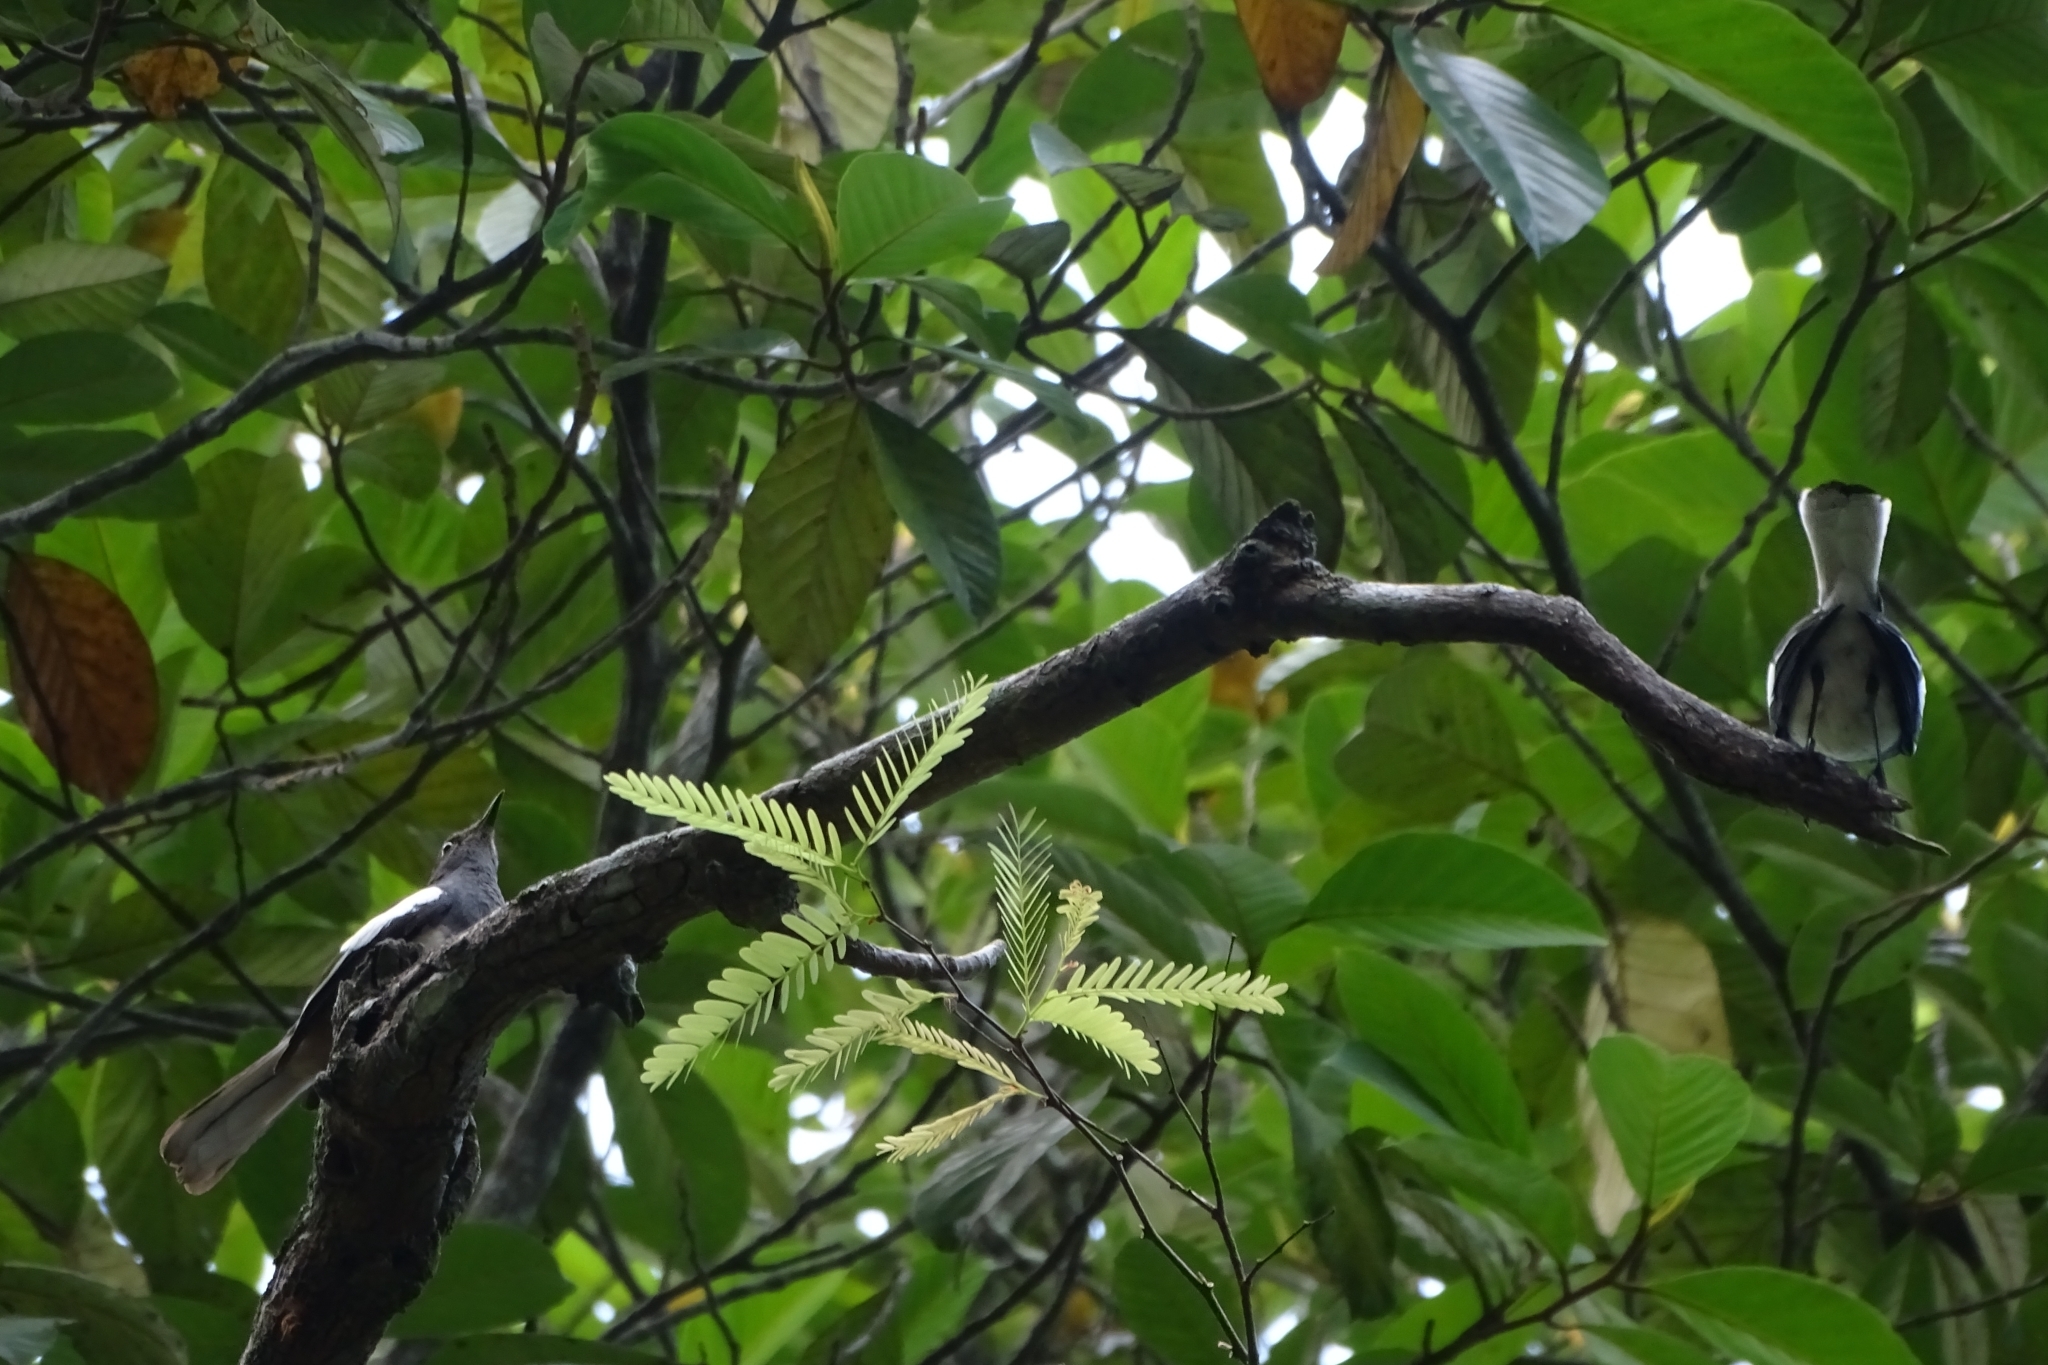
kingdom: Animalia
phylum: Chordata
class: Aves
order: Passeriformes
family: Muscicapidae
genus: Copsychus
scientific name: Copsychus saularis
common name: Oriental magpie-robin
